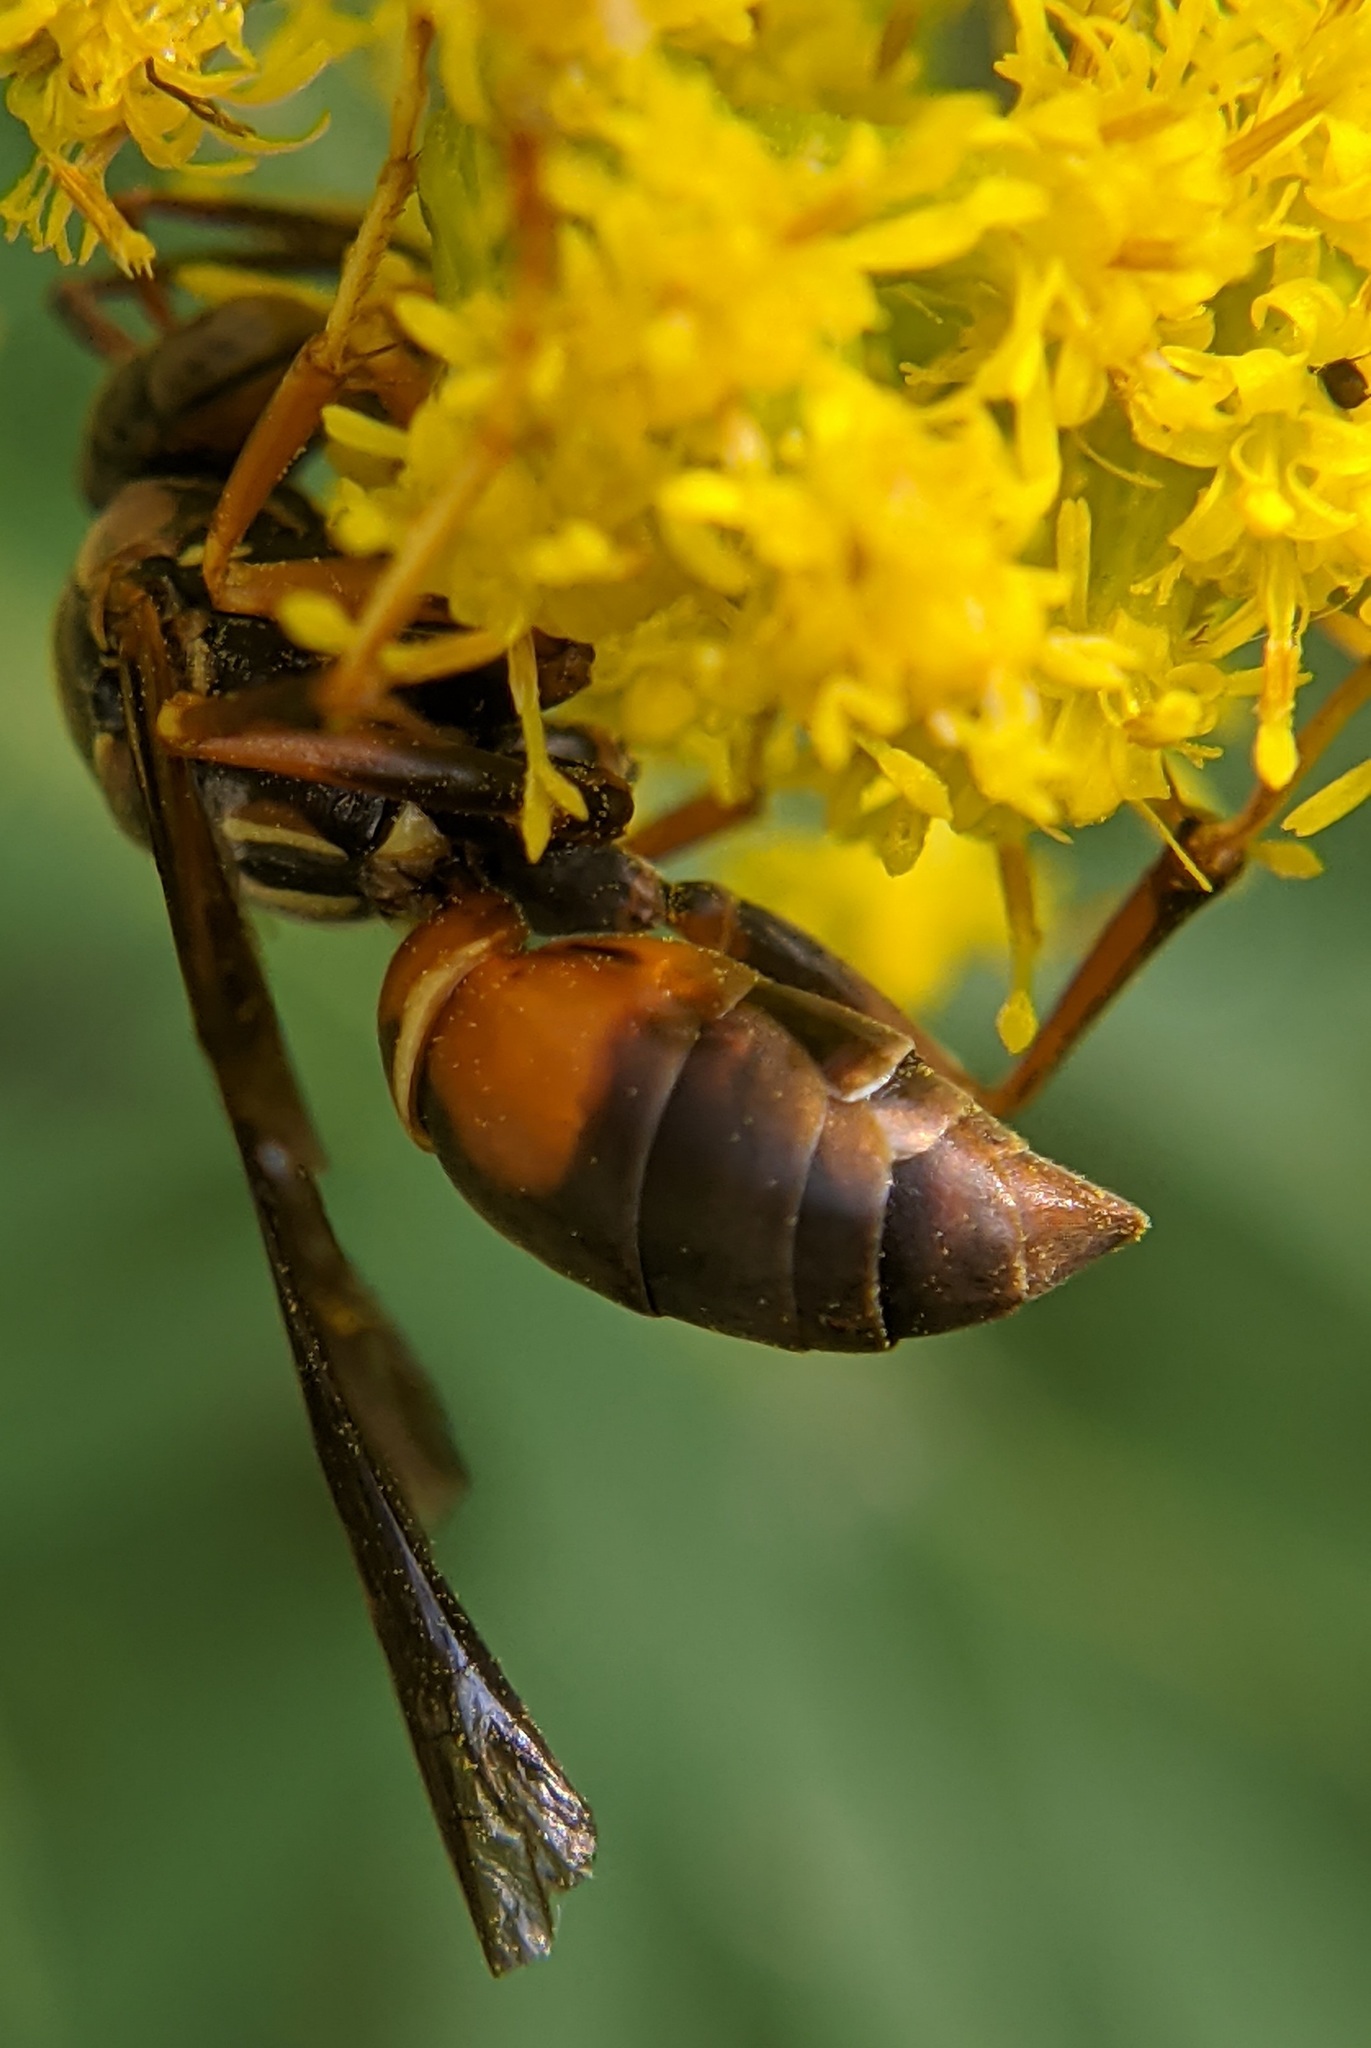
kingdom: Animalia
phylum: Arthropoda
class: Insecta
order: Hymenoptera
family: Eumenidae
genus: Polistes
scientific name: Polistes fuscatus
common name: Dark paper wasp
